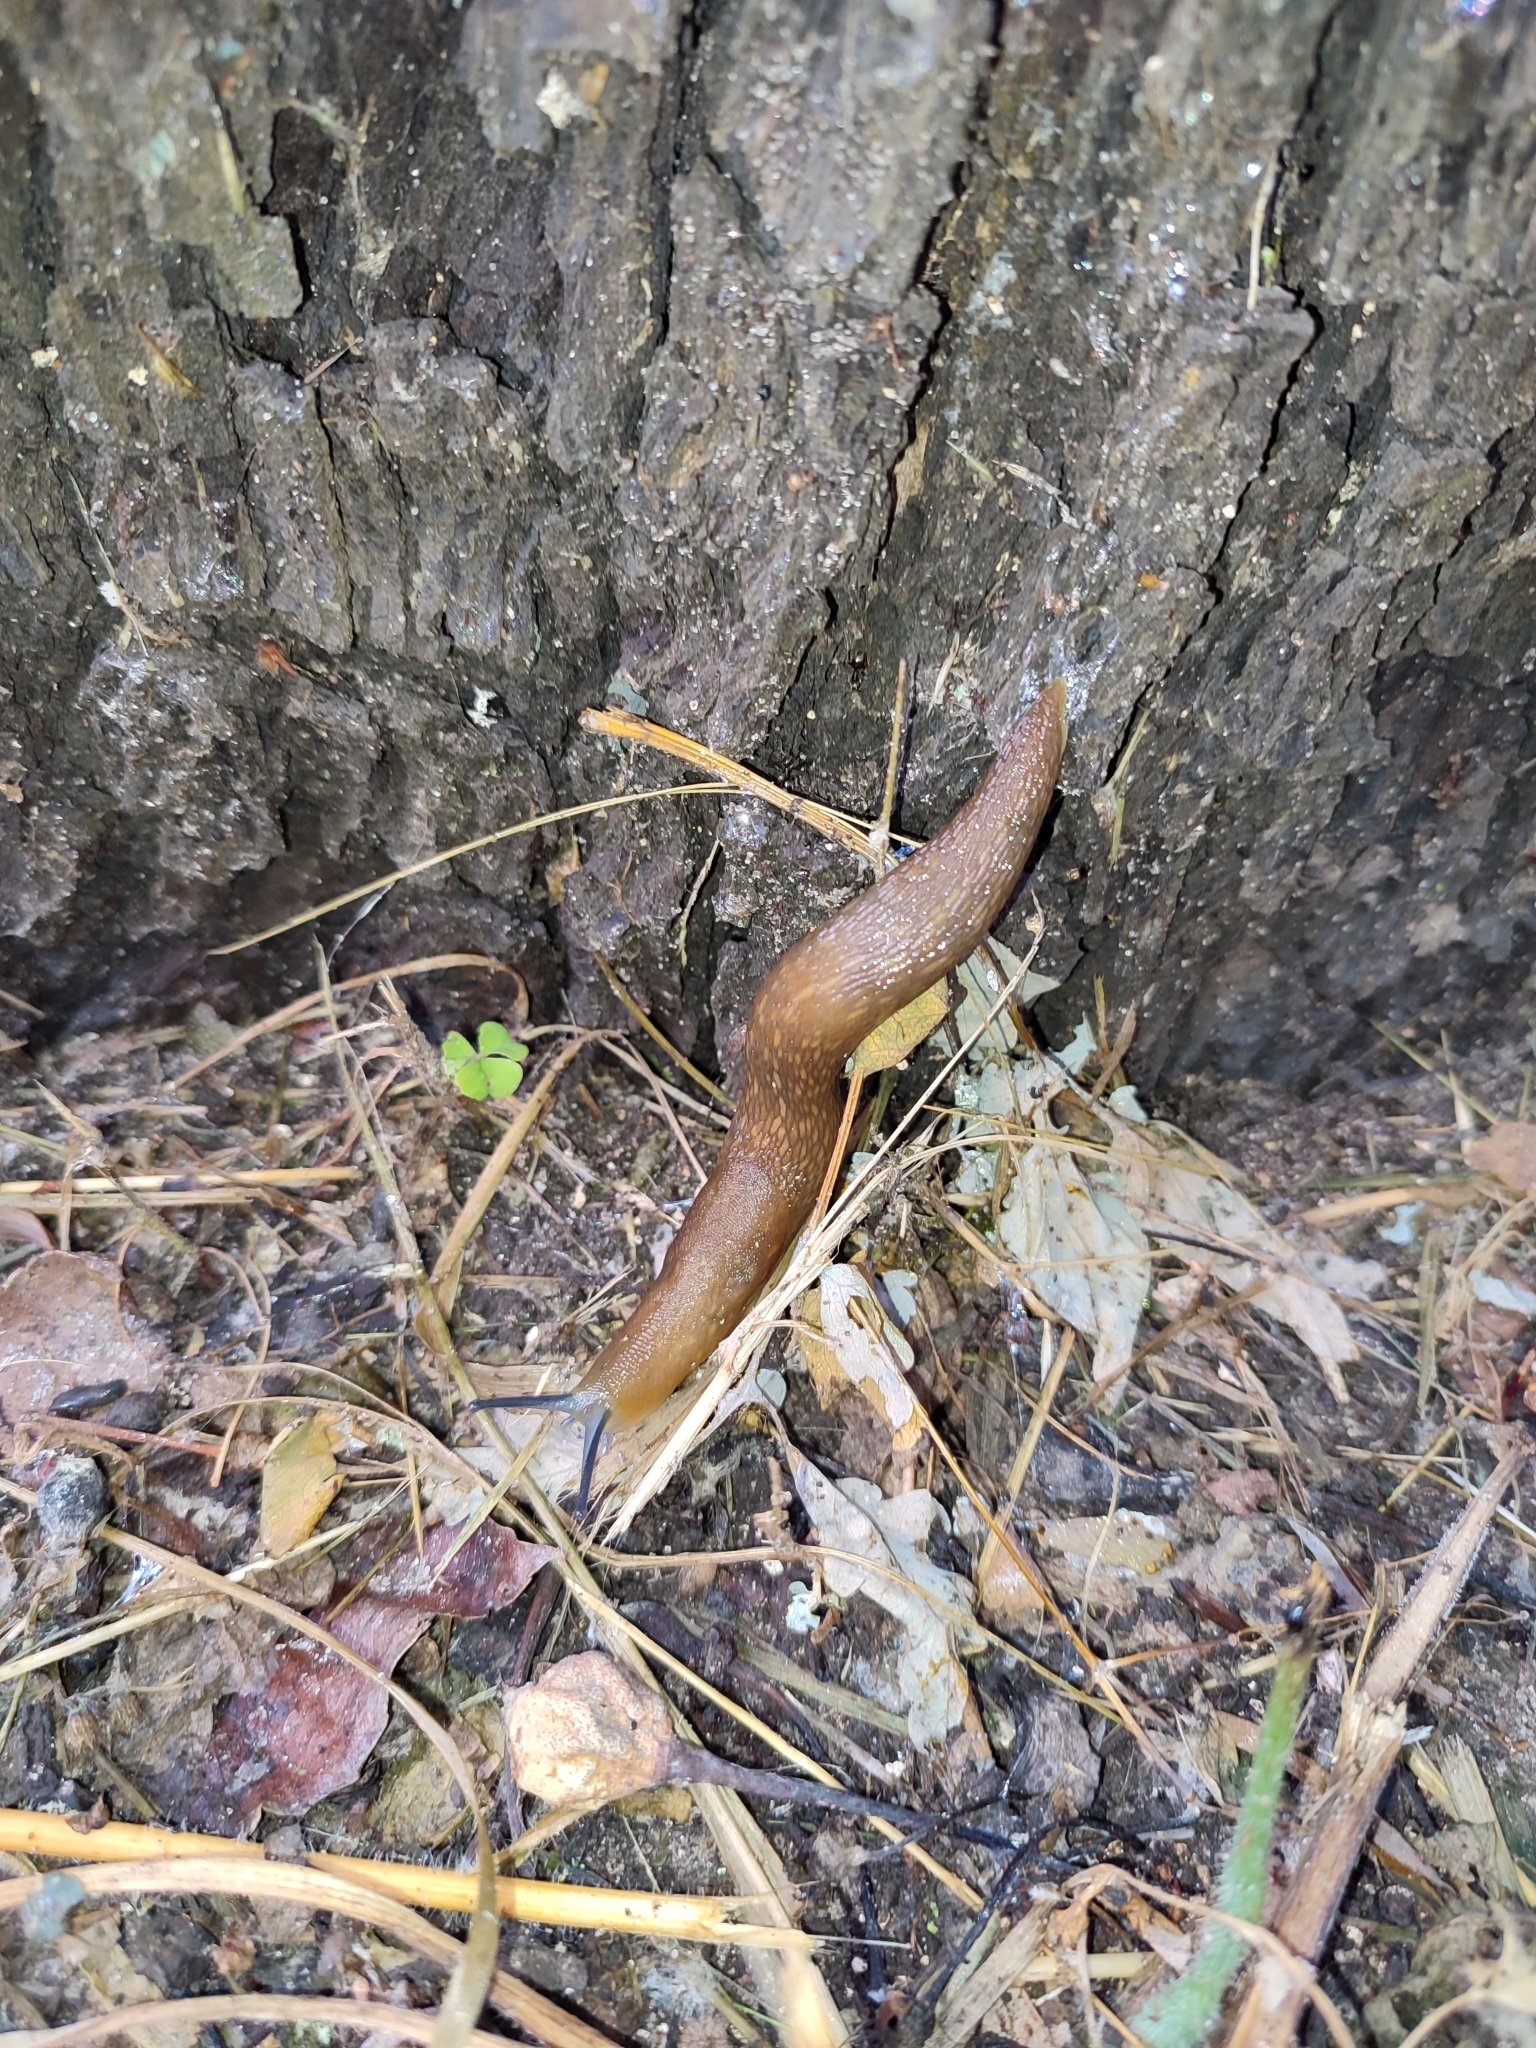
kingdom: Animalia
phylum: Mollusca
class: Gastropoda
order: Stylommatophora
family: Limacidae
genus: Limacus
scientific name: Limacus flavus
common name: Yellow gardenslug
